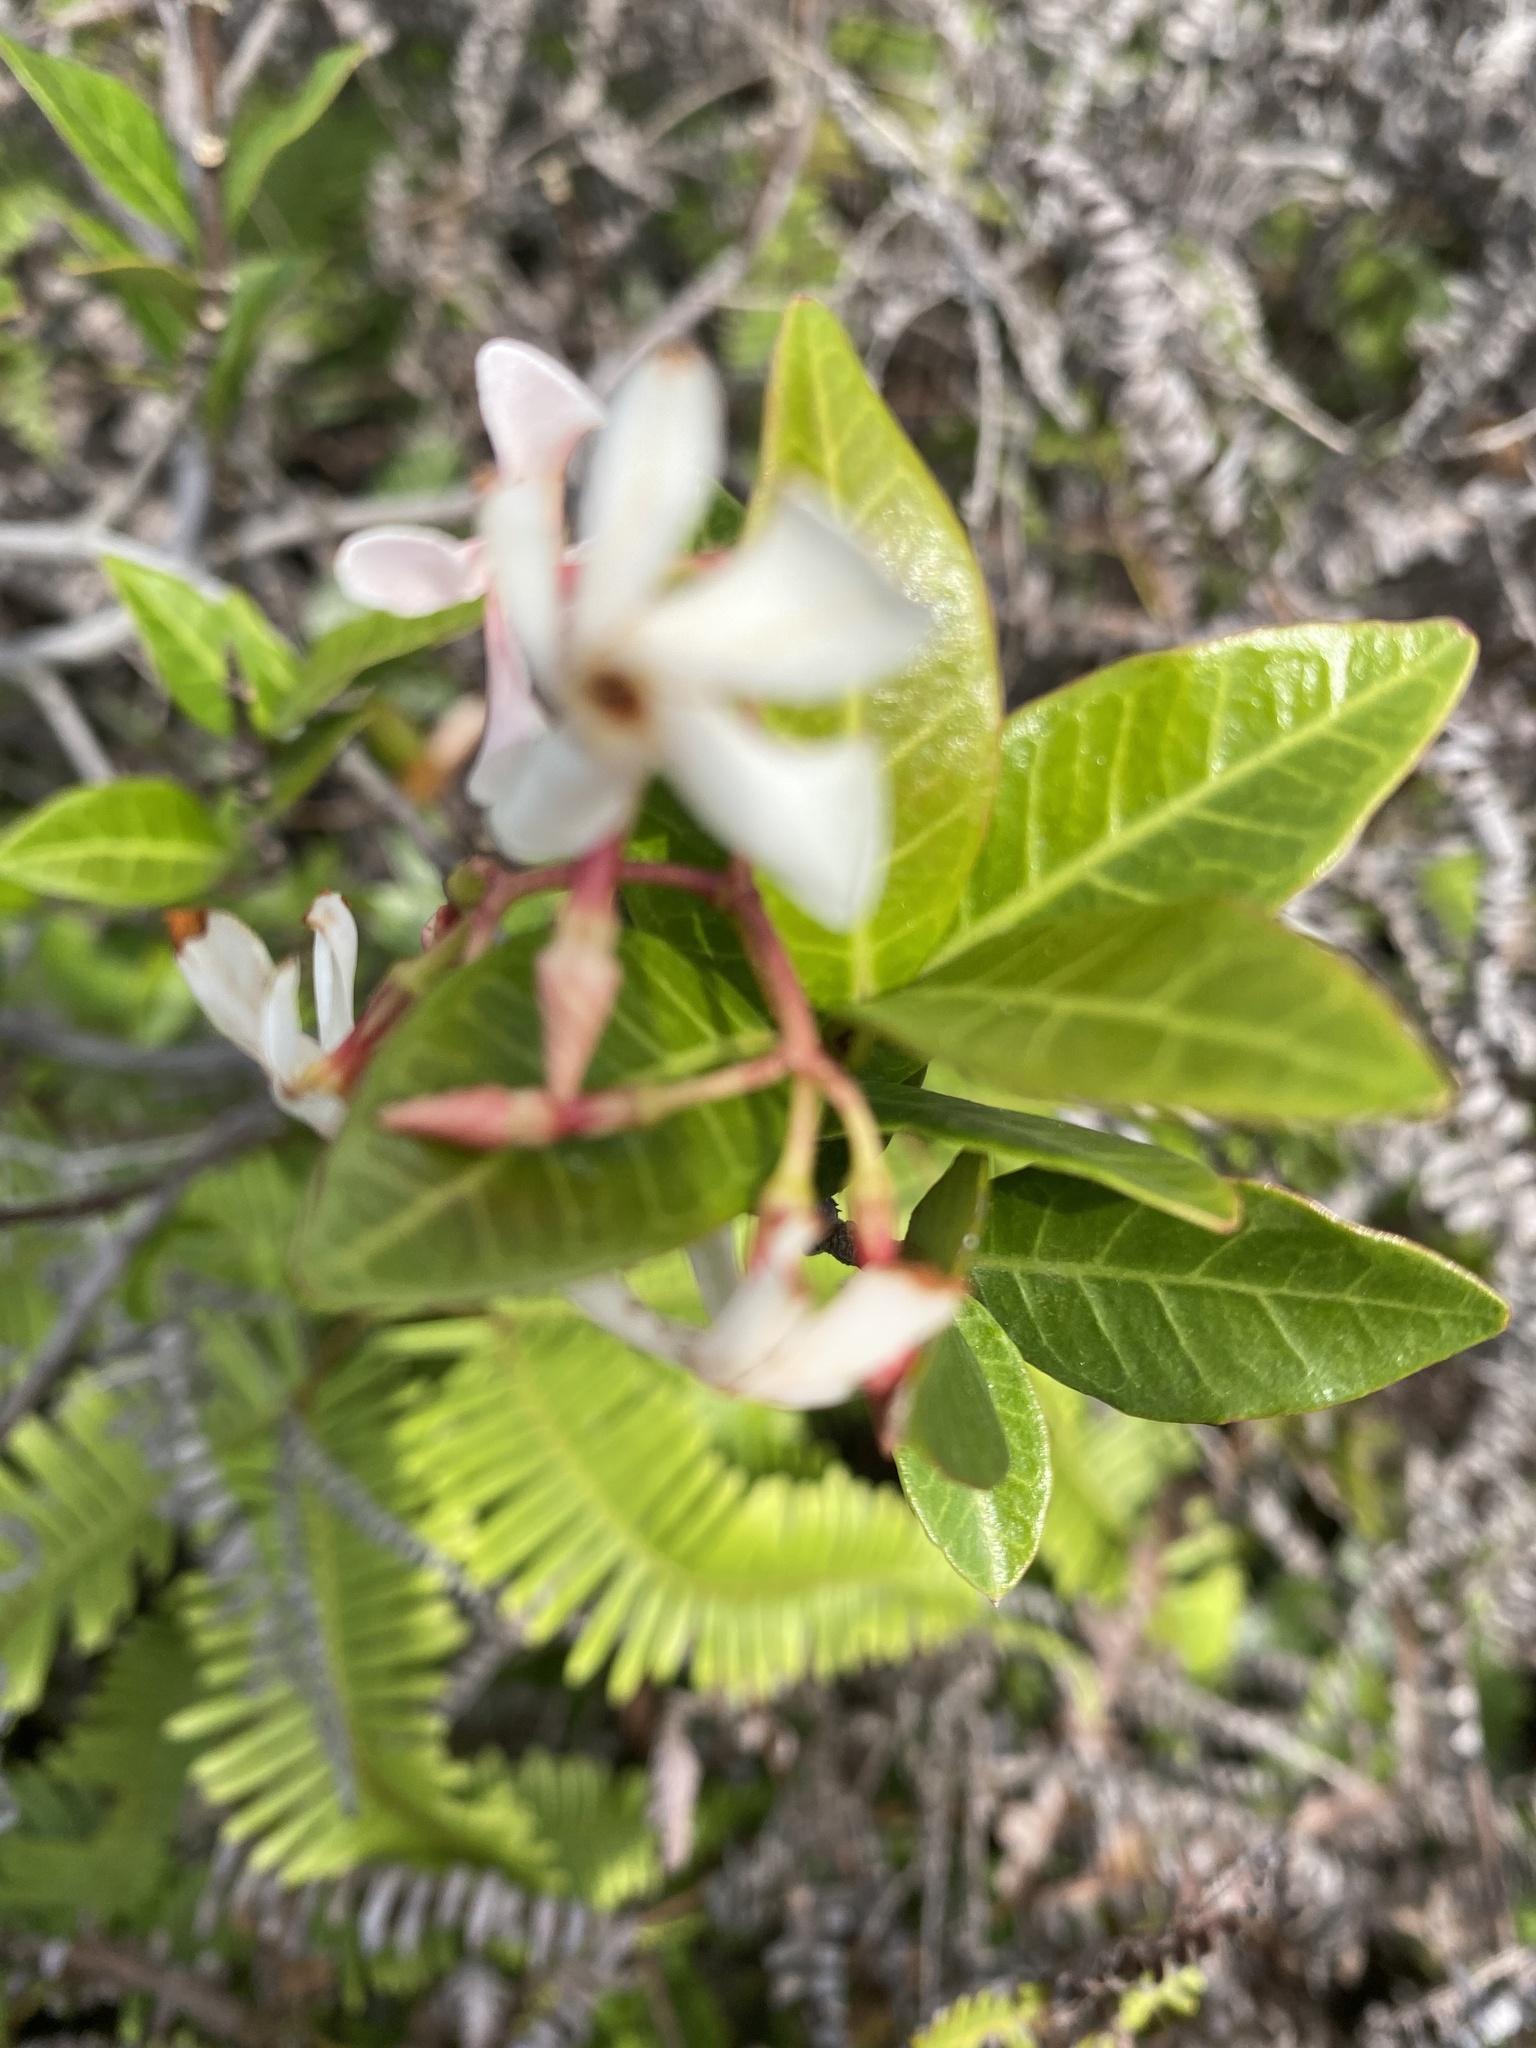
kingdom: Plantae
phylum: Tracheophyta
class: Magnoliopsida
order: Gentianales
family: Apocynaceae
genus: Trachelospermum
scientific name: Trachelospermum asiaticum
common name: Asiatic jasmine
